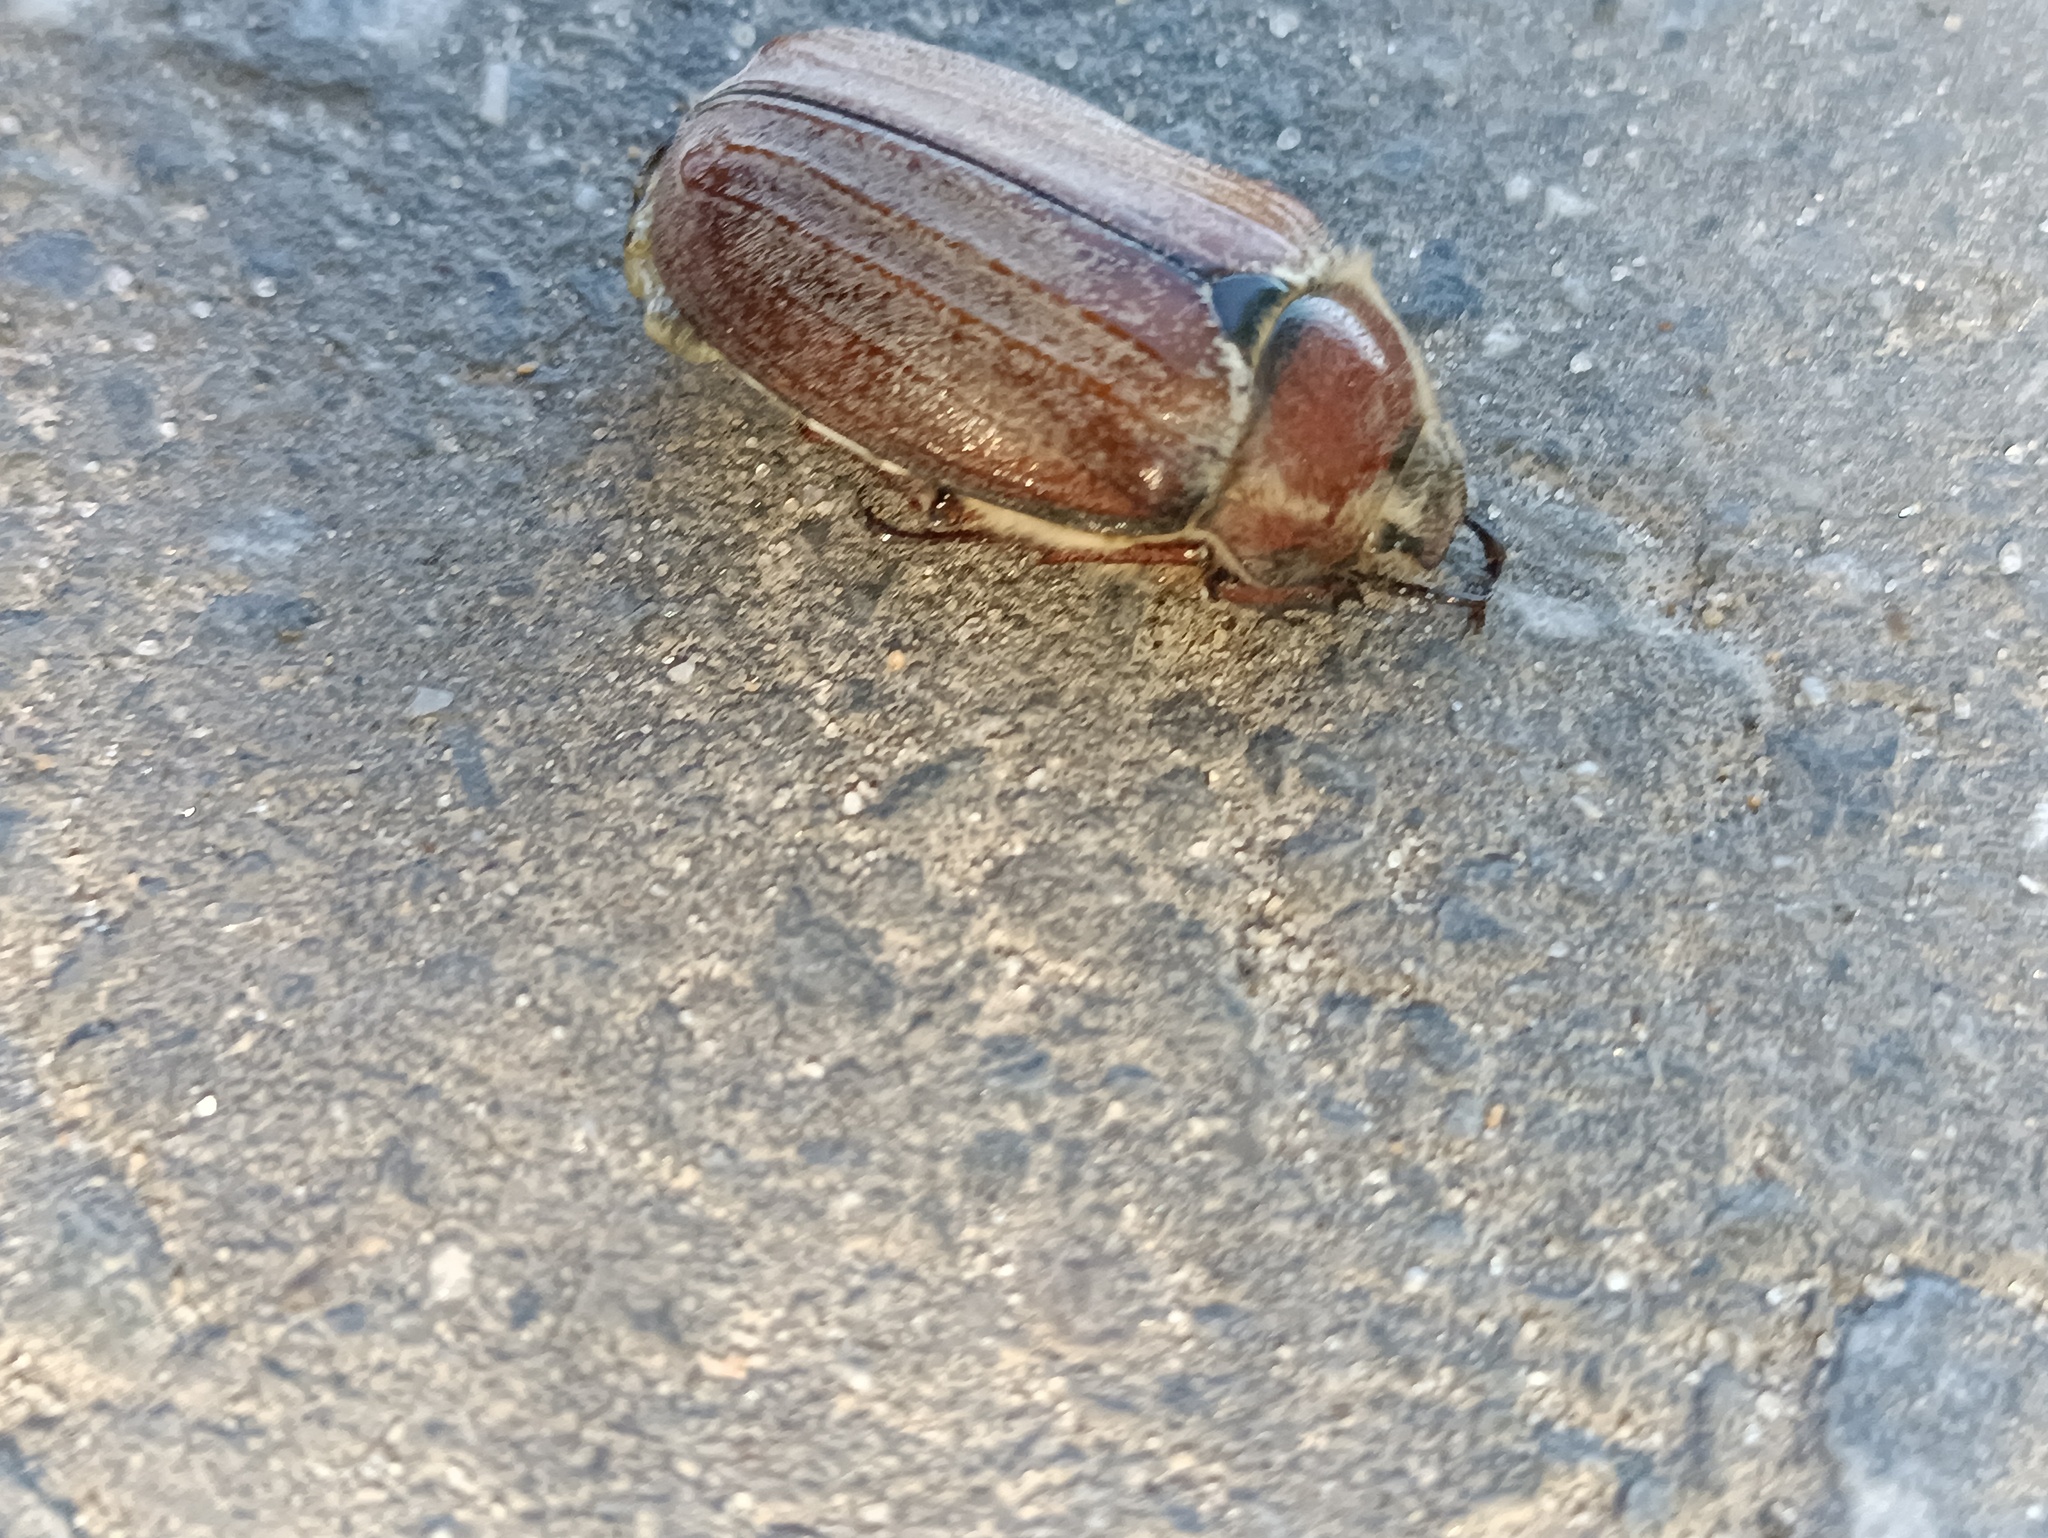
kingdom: Animalia
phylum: Arthropoda
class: Insecta
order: Coleoptera
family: Scarabaeidae
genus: Melolontha
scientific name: Melolontha hippocastani
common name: Chestnut cockchafer
